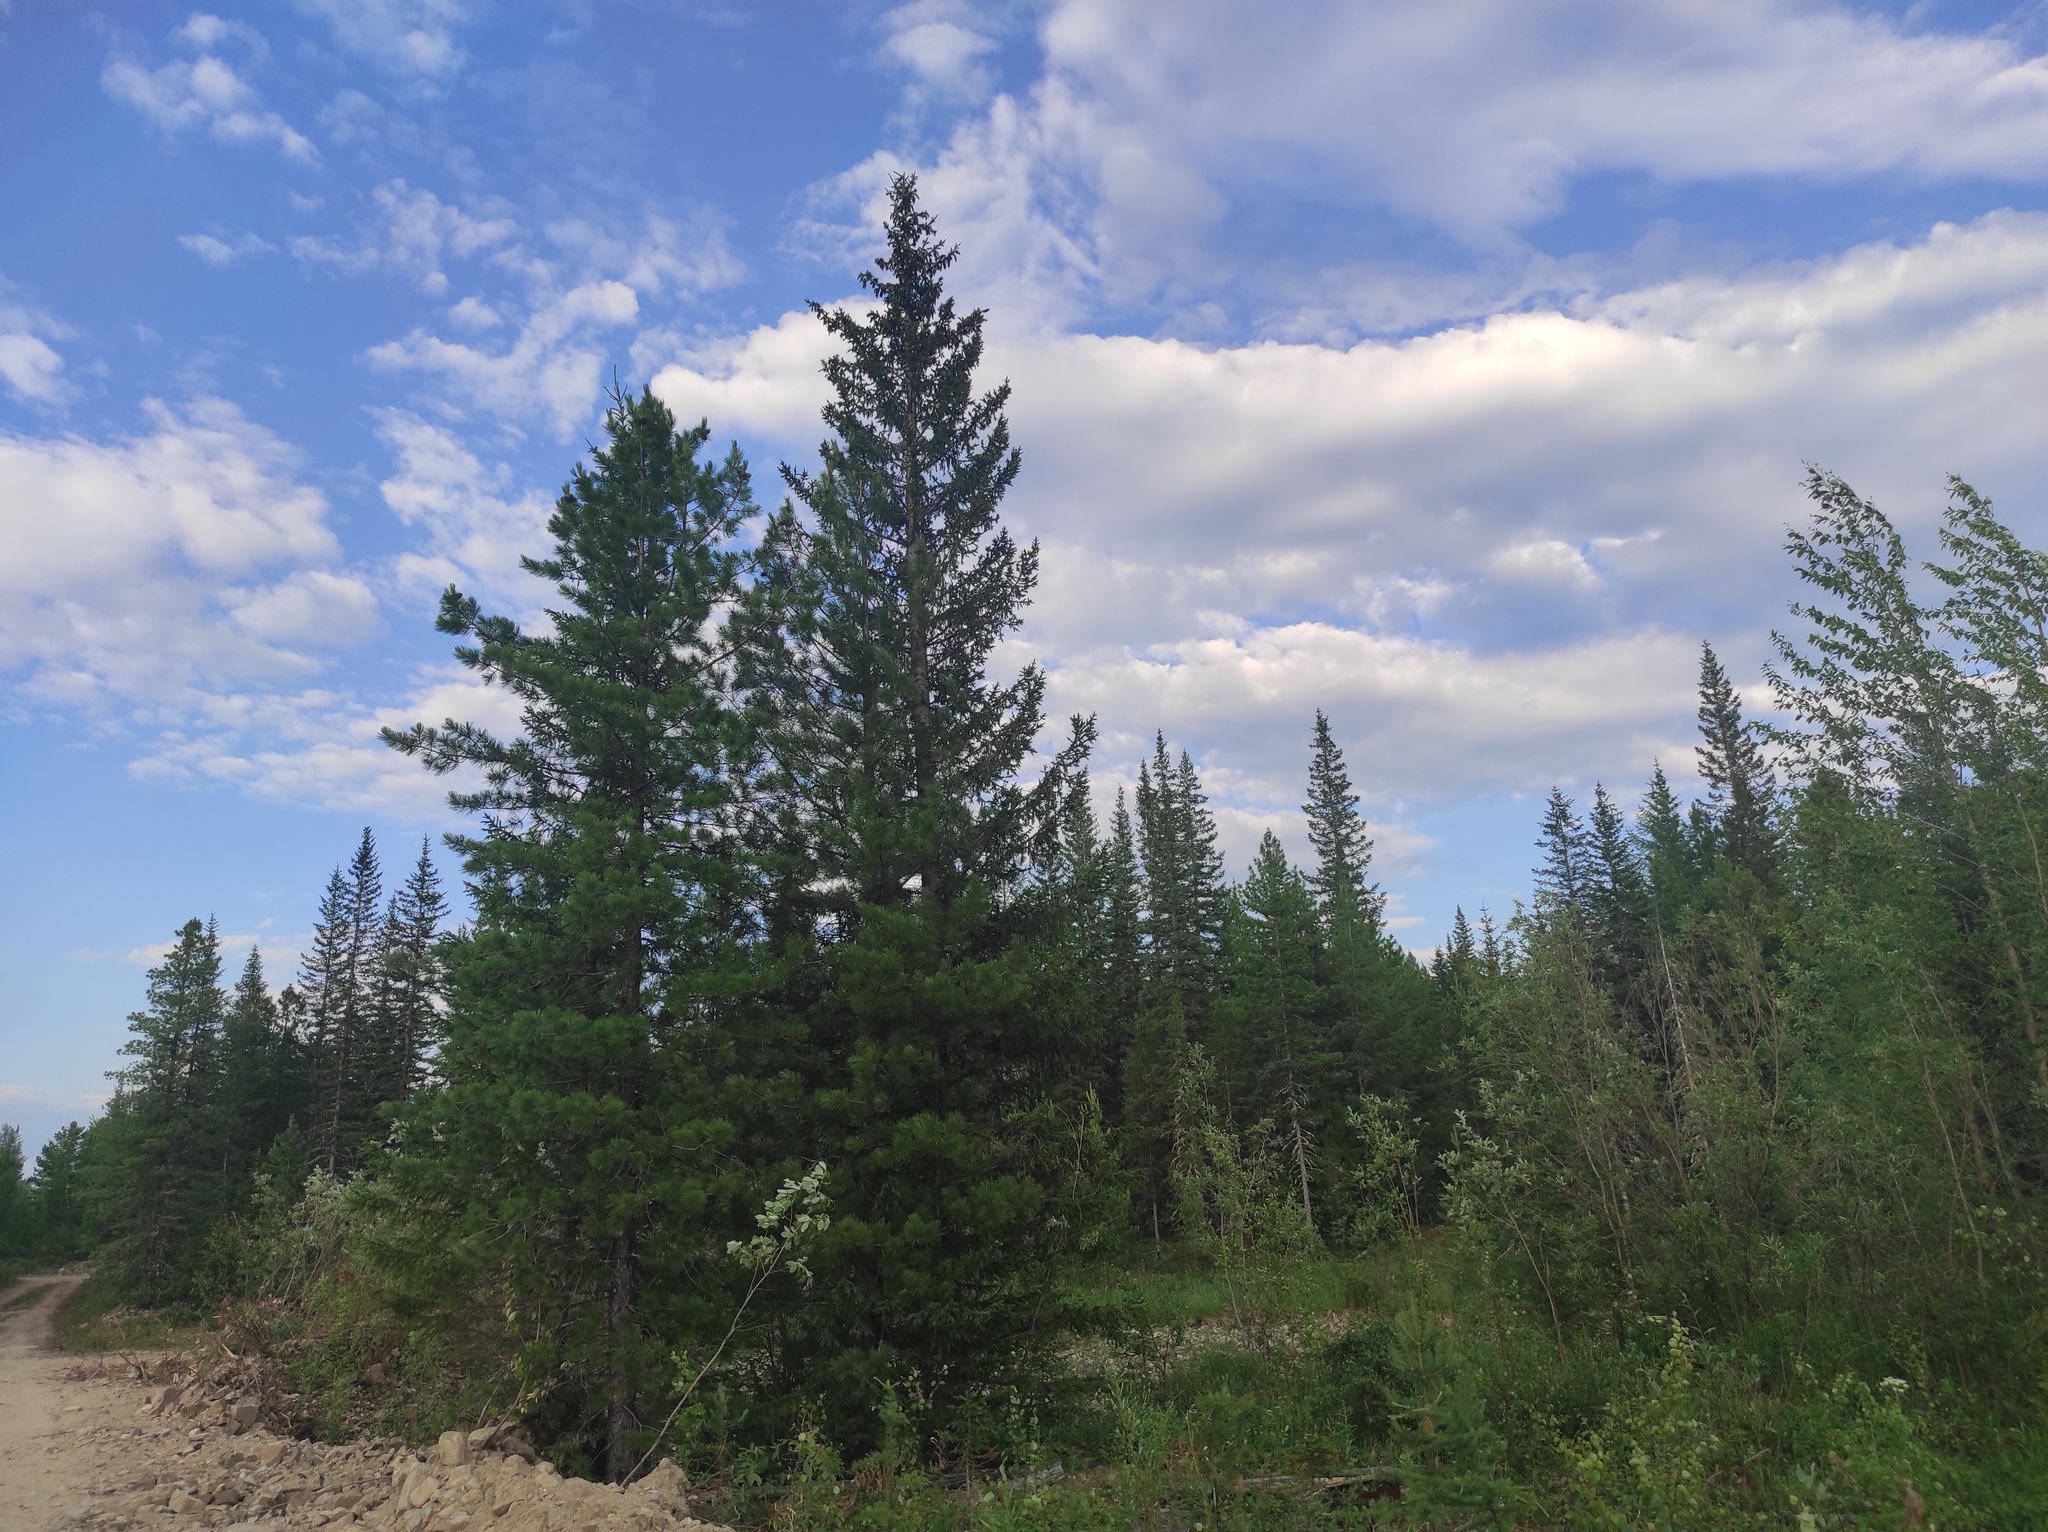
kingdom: Plantae
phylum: Tracheophyta
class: Pinopsida
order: Pinales
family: Pinaceae
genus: Pinus
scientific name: Pinus sibirica
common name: Siberian pine
